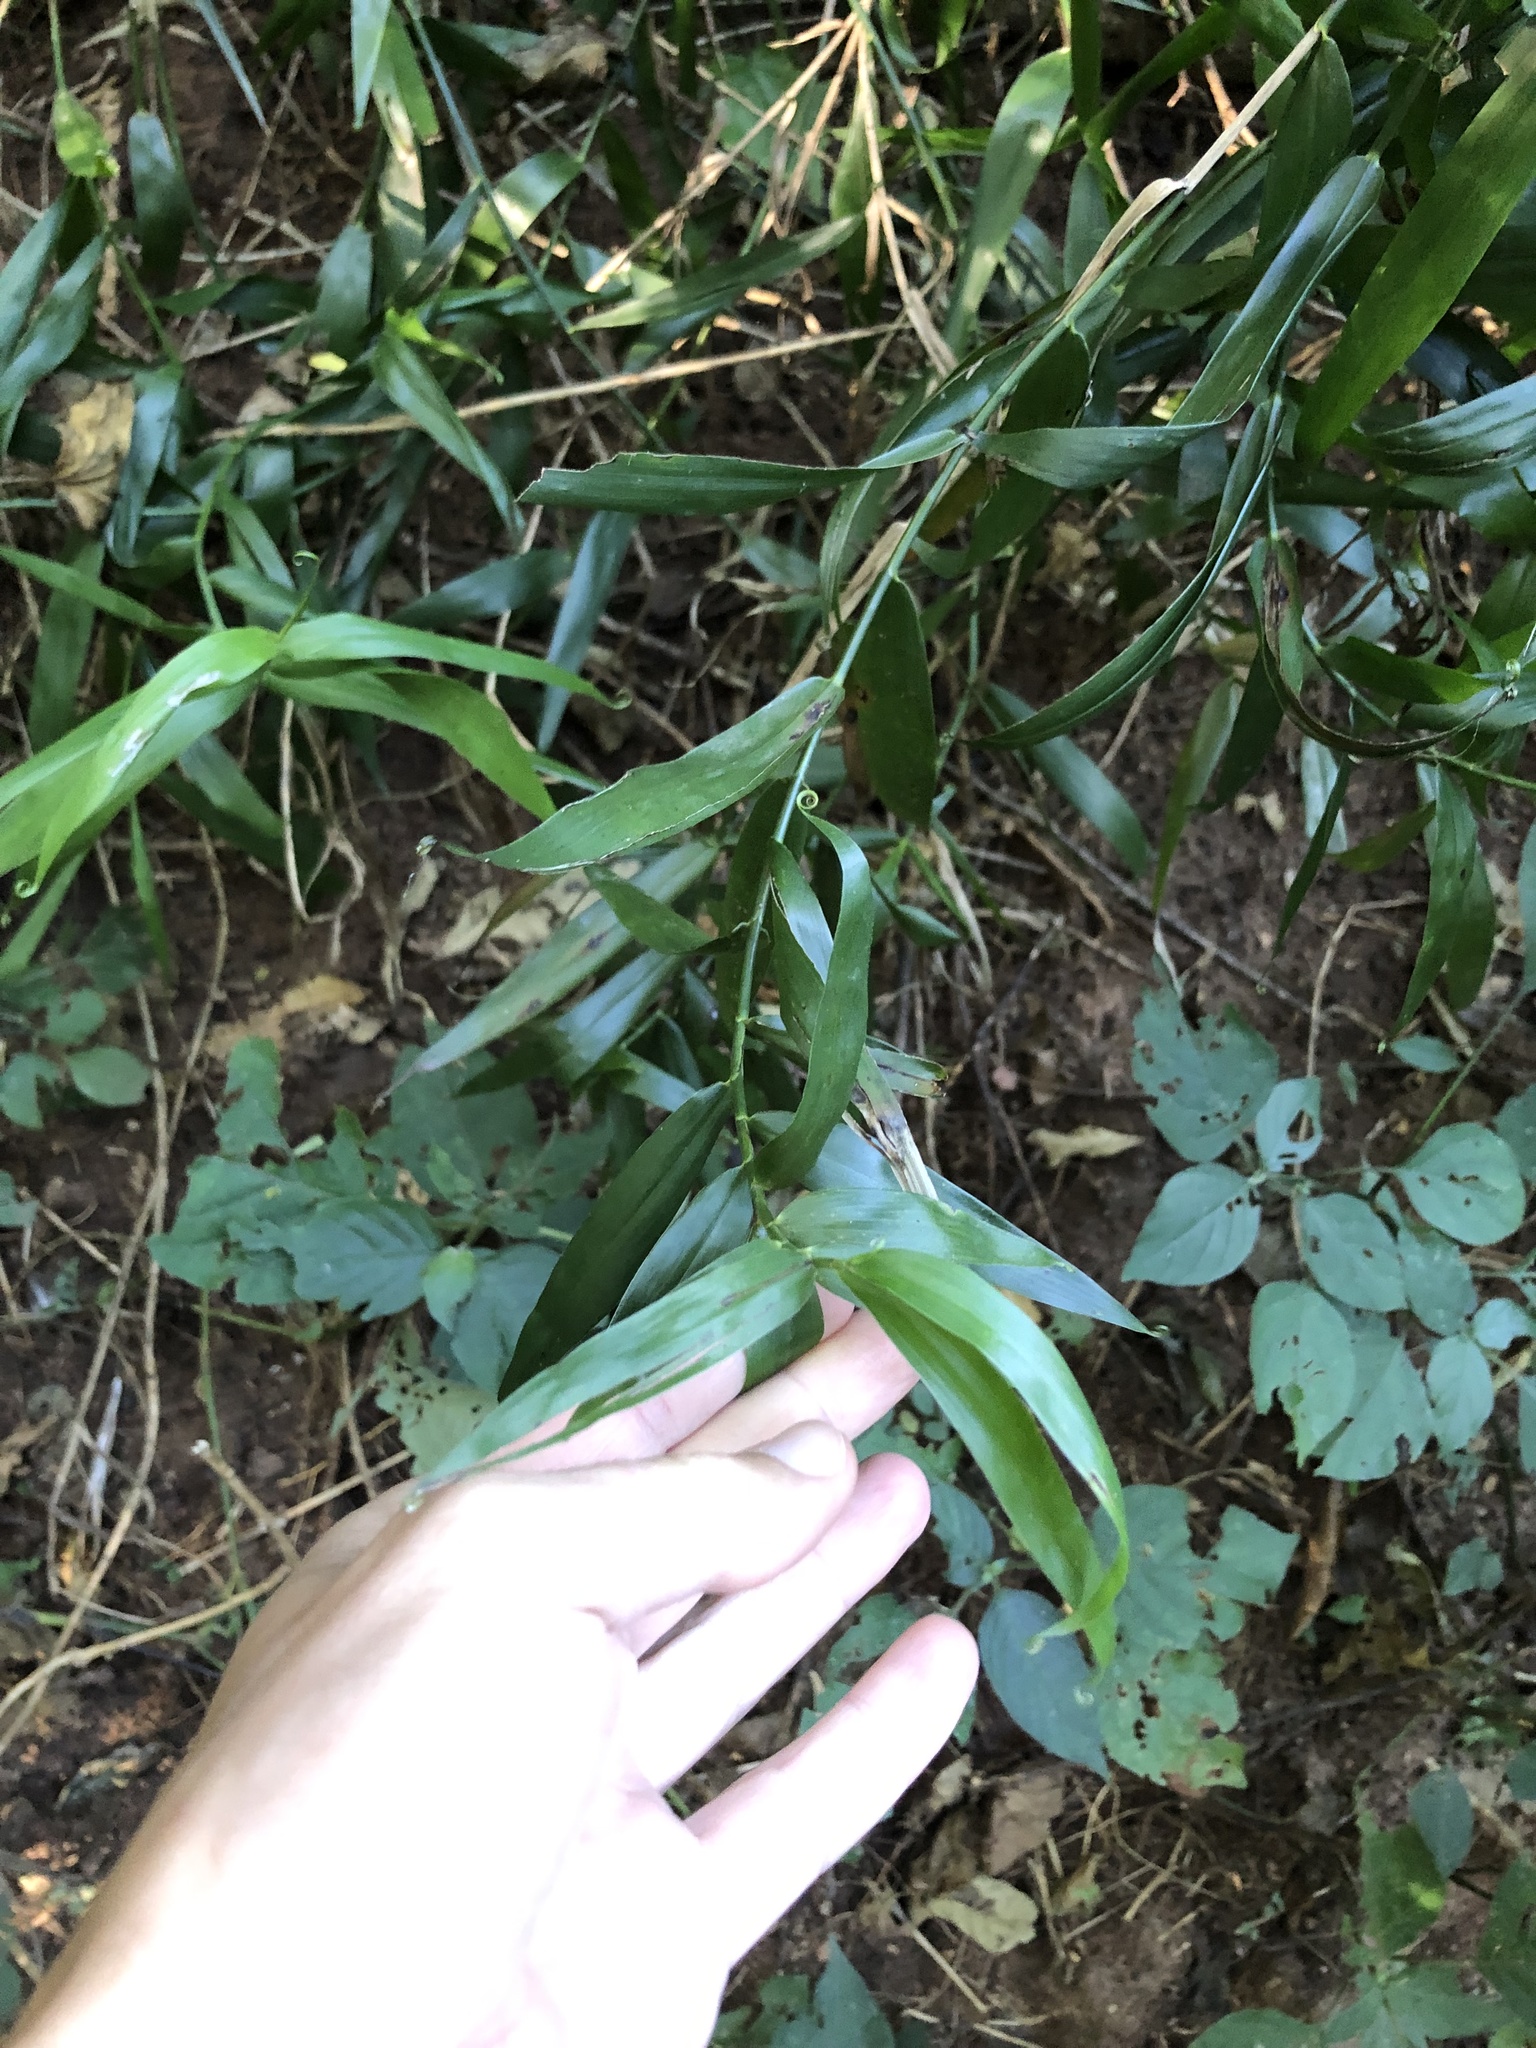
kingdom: Plantae
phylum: Tracheophyta
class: Liliopsida
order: Poales
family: Flagellariaceae
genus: Flagellaria
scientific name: Flagellaria guineensis
